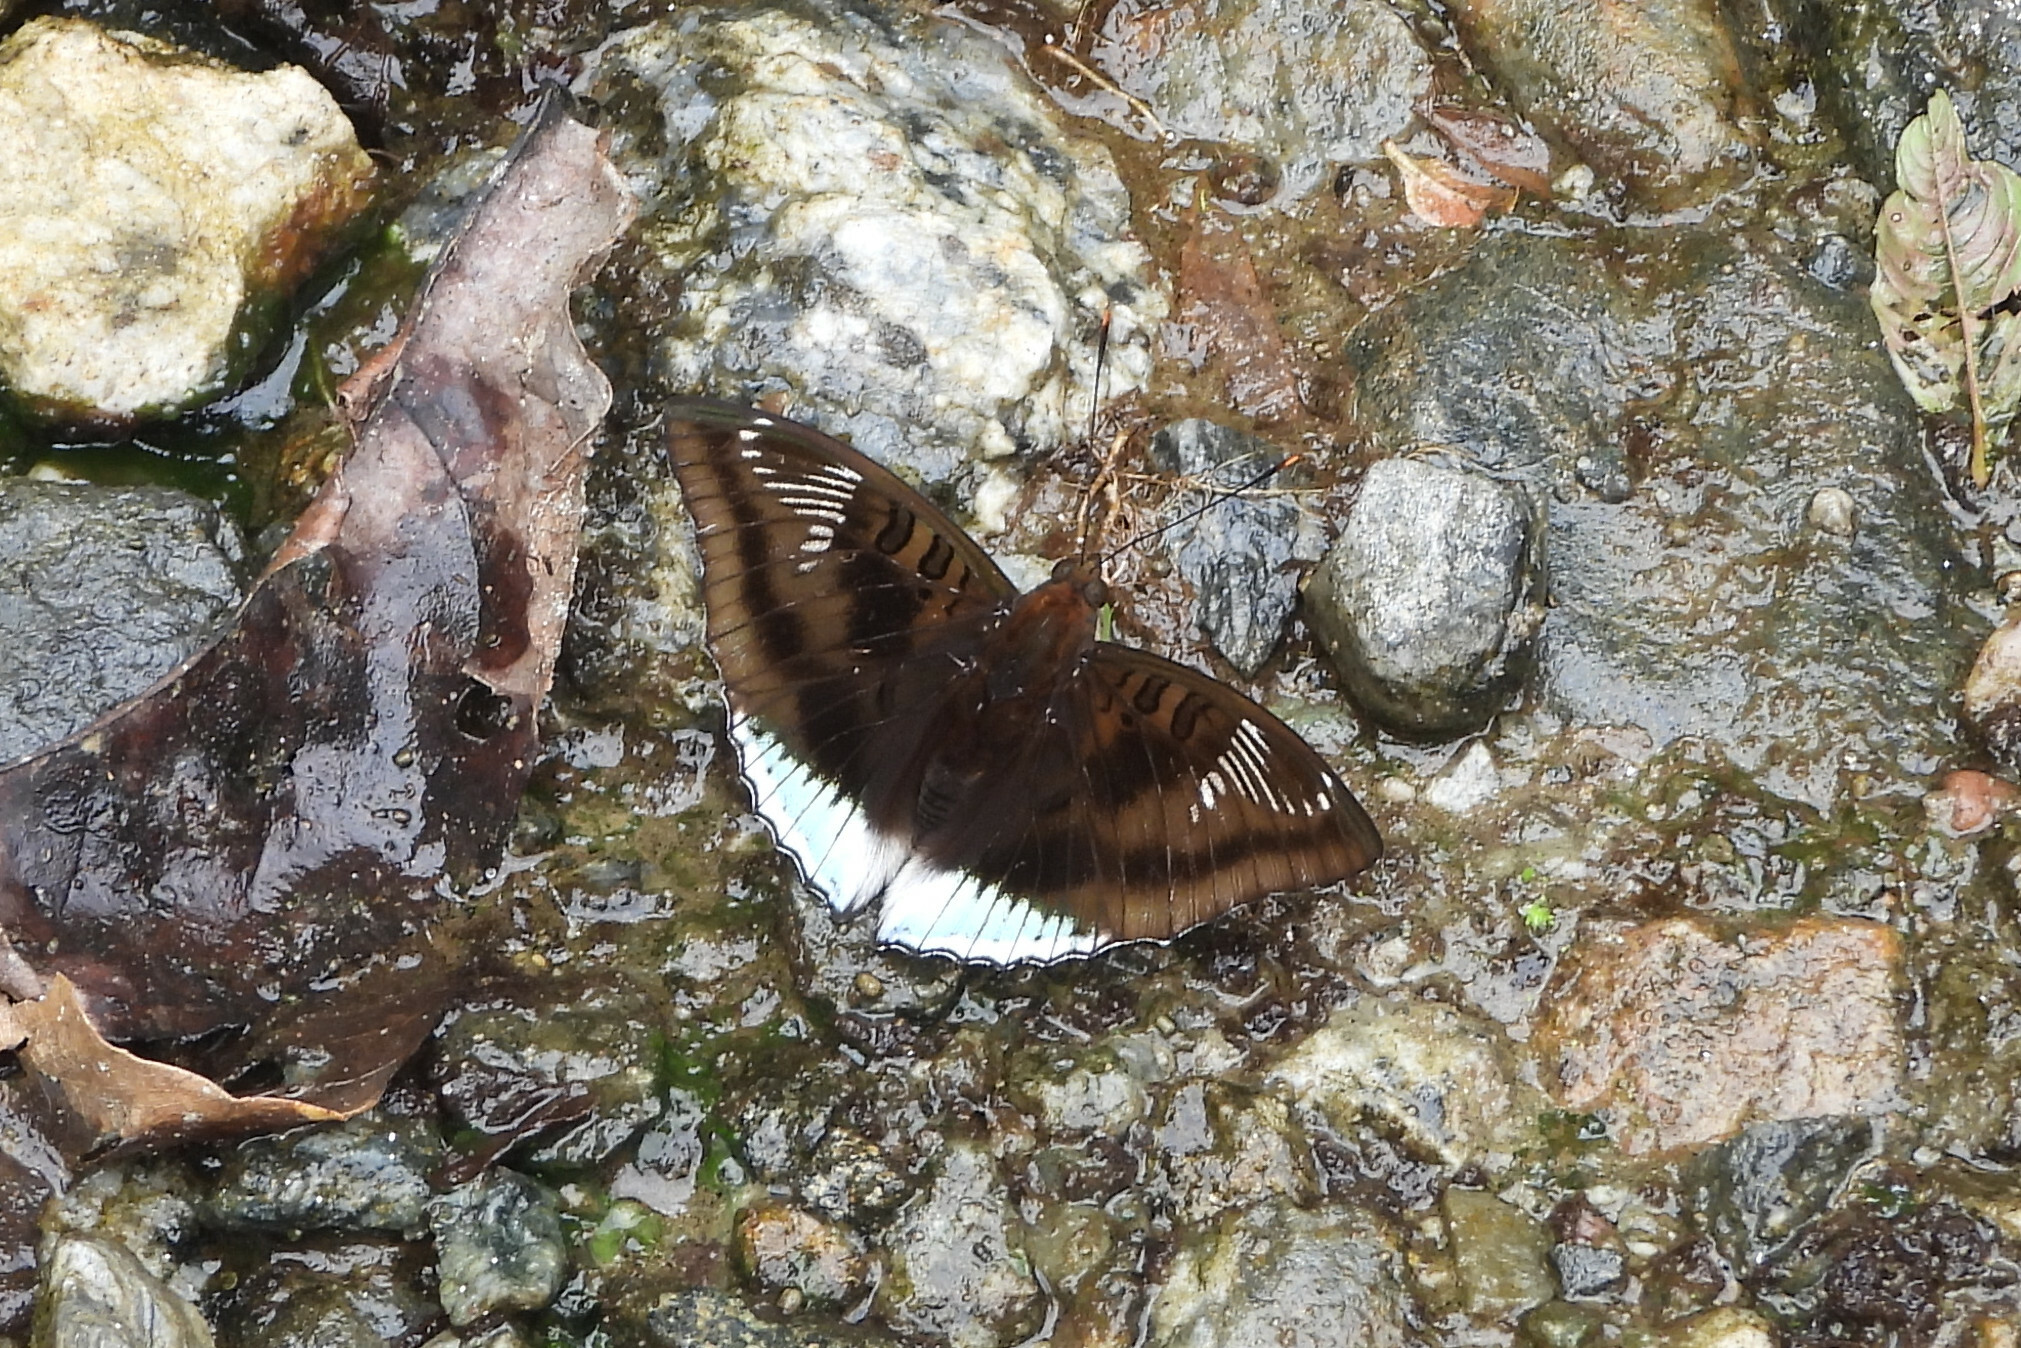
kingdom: Animalia
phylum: Arthropoda
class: Insecta
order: Lepidoptera
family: Nymphalidae
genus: Euthalia
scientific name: Euthalia phemius
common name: White-edged blue baron
